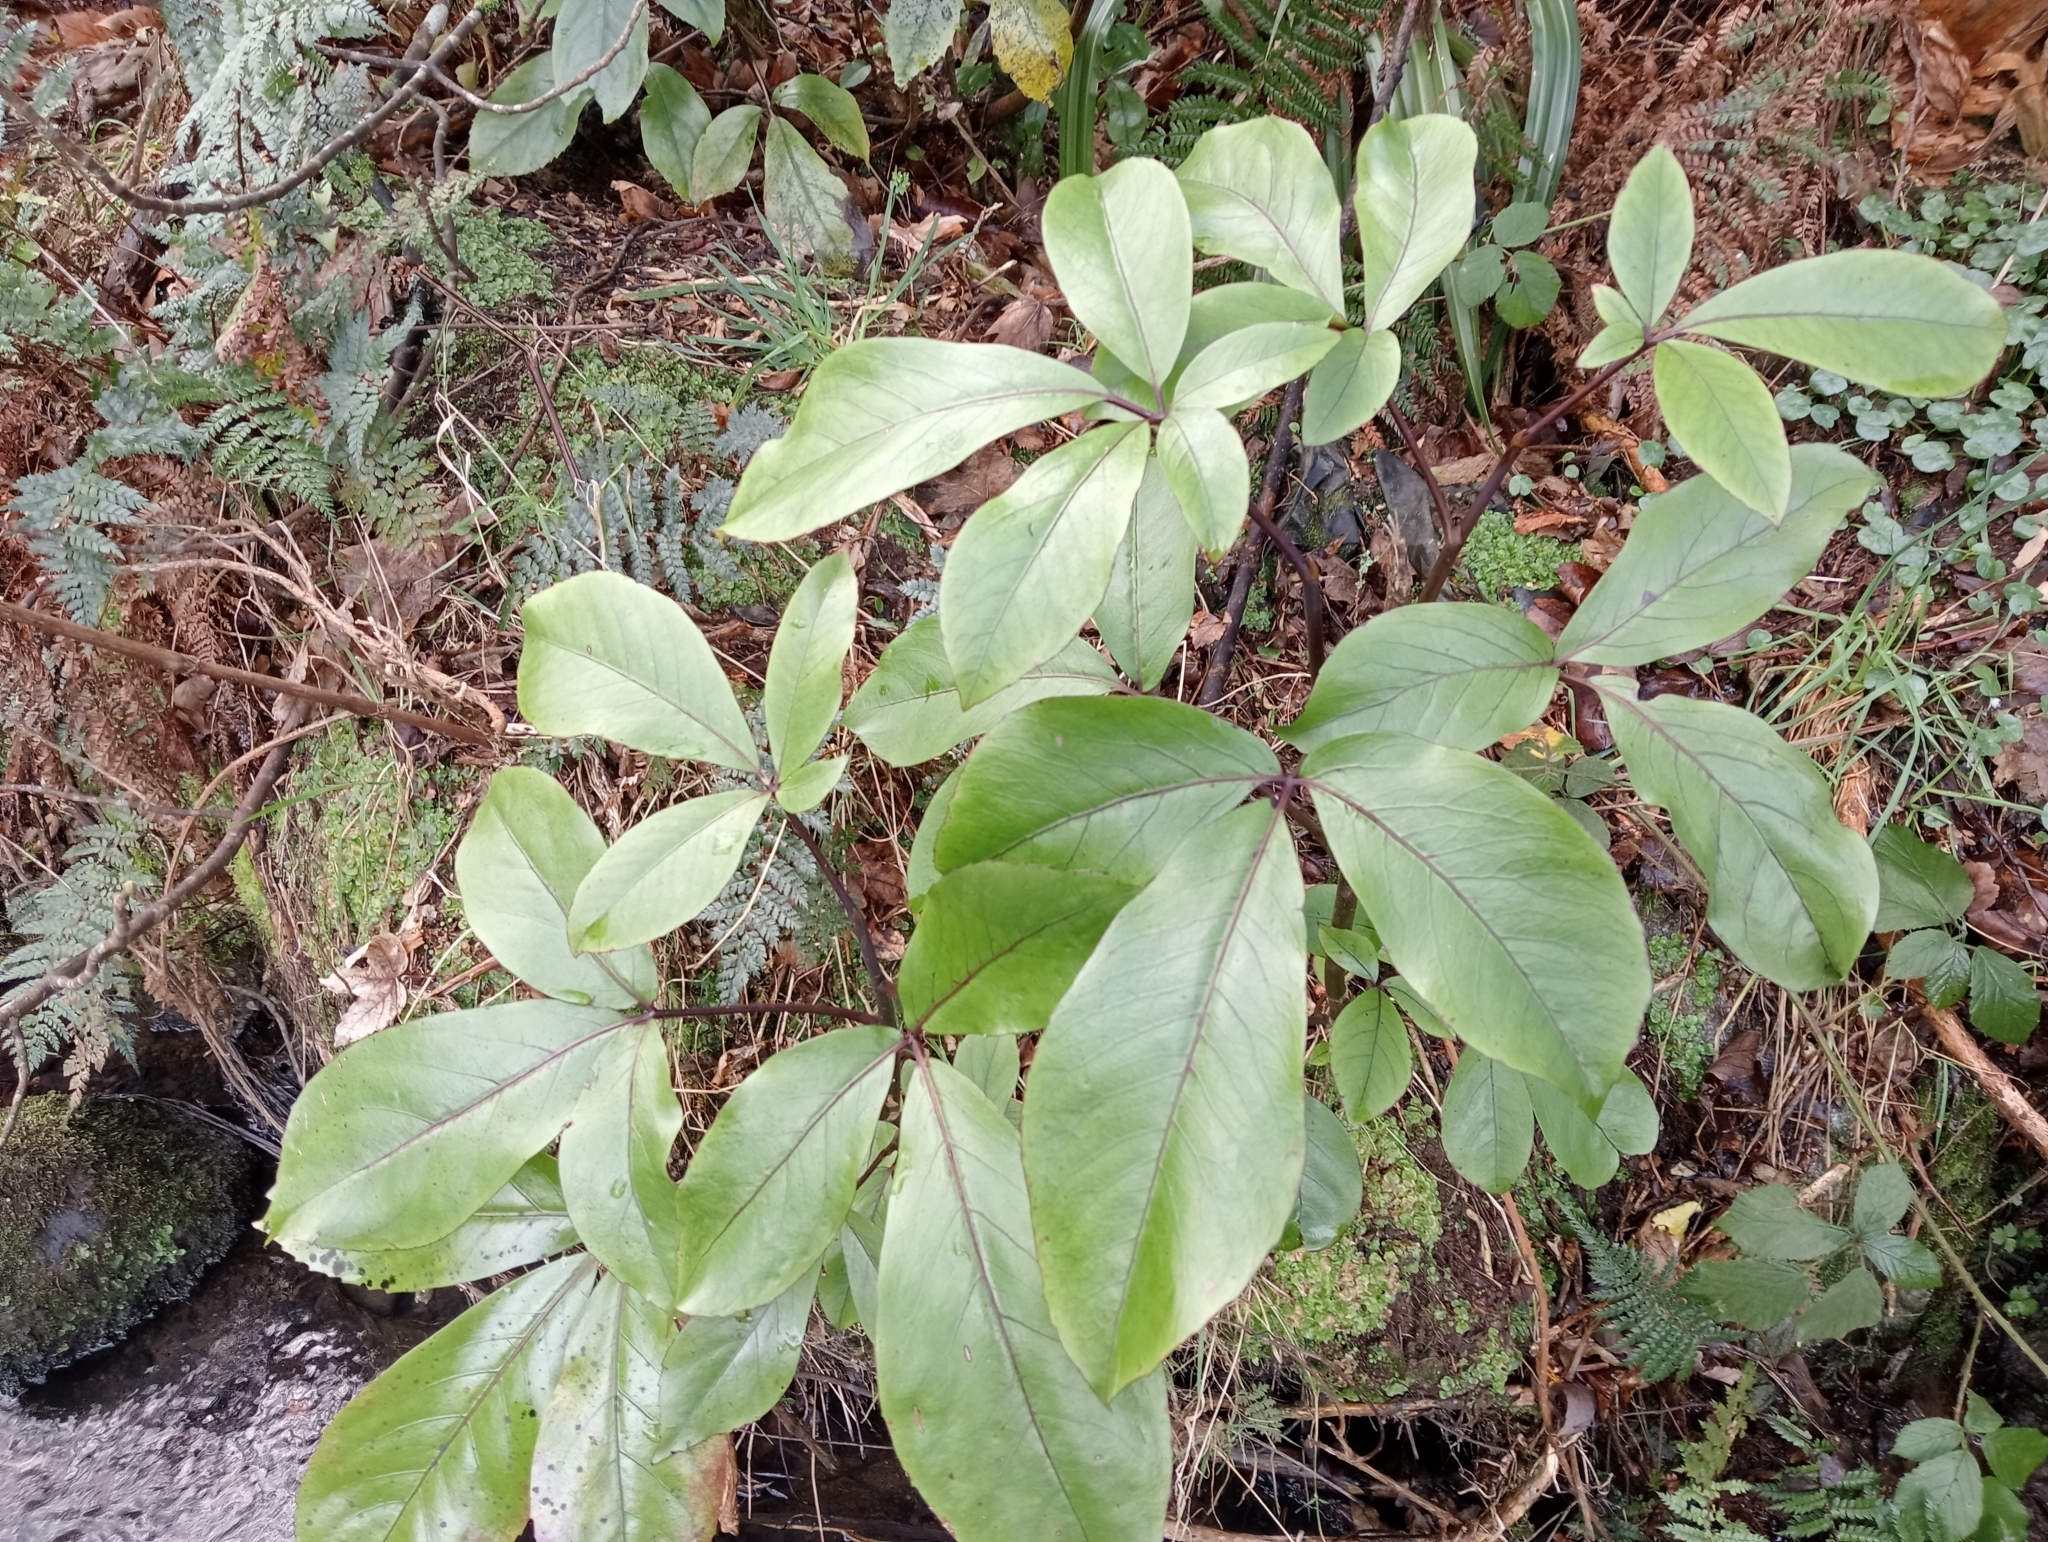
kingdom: Plantae
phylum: Tracheophyta
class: Magnoliopsida
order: Apiales
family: Araliaceae
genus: Neopanax
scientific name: Neopanax laetus
